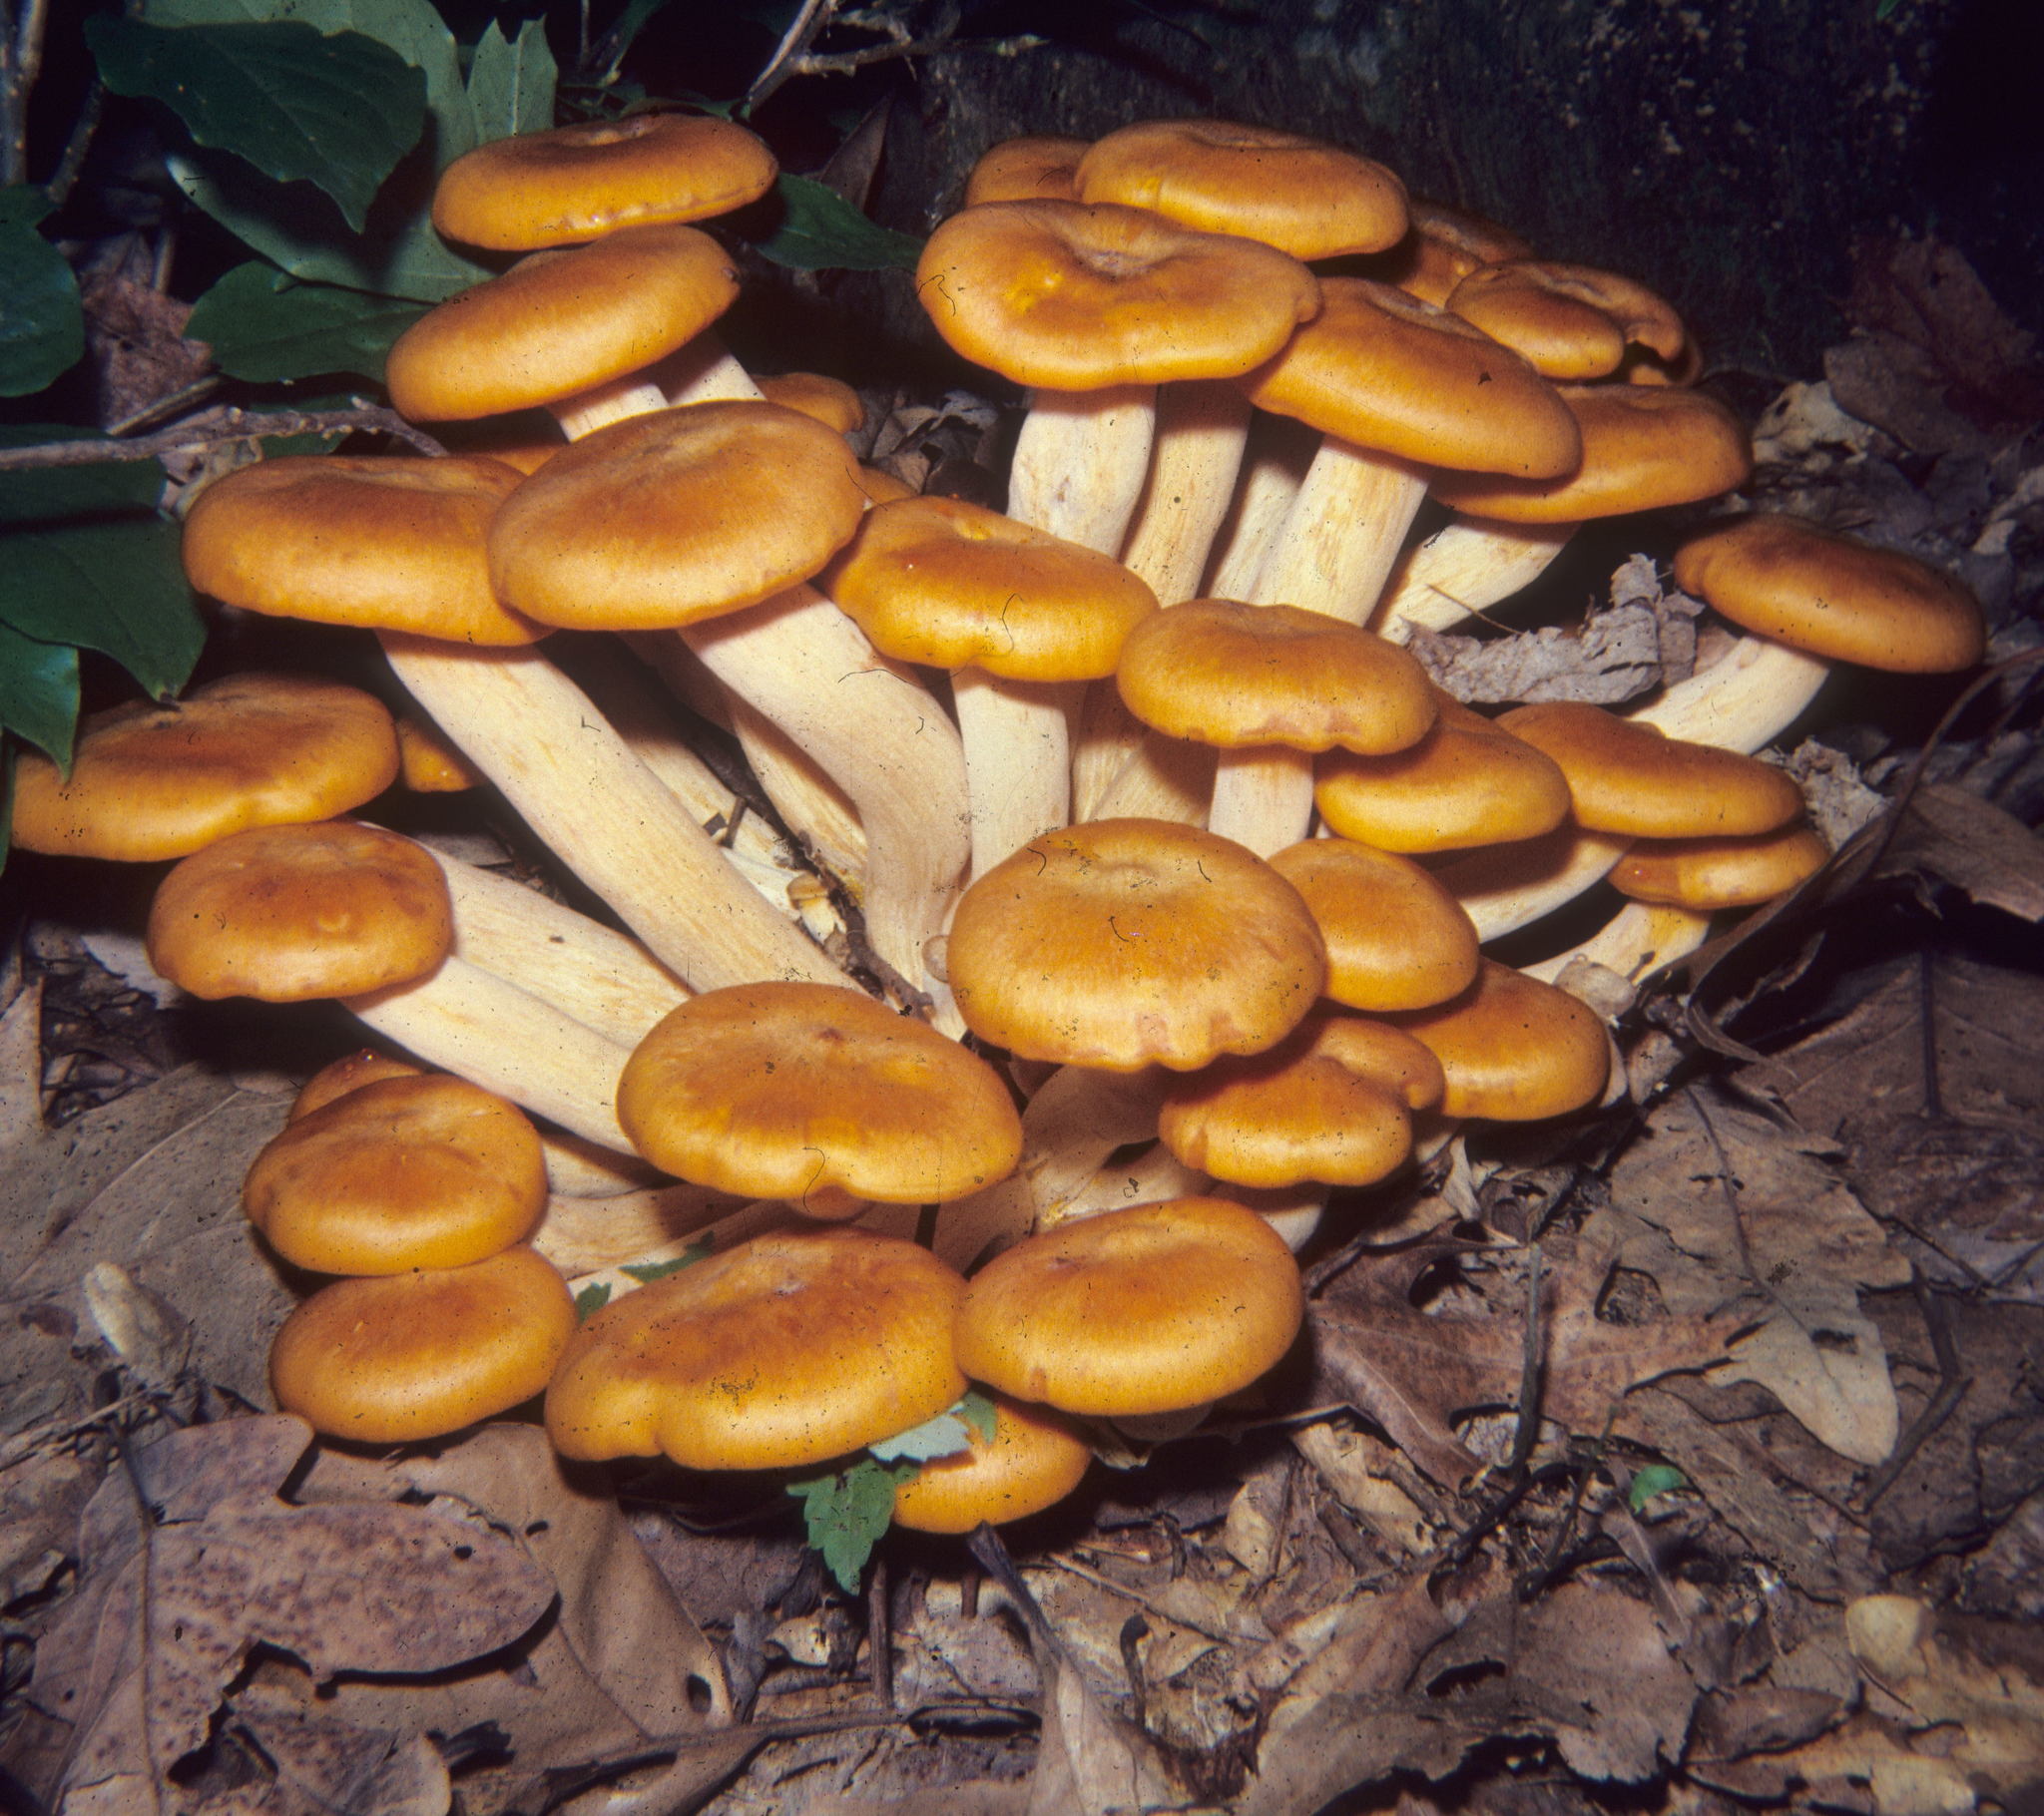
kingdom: Fungi
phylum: Basidiomycota
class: Agaricomycetes
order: Agaricales
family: Omphalotaceae
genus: Omphalotus
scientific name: Omphalotus illudens
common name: Jack o lantern
